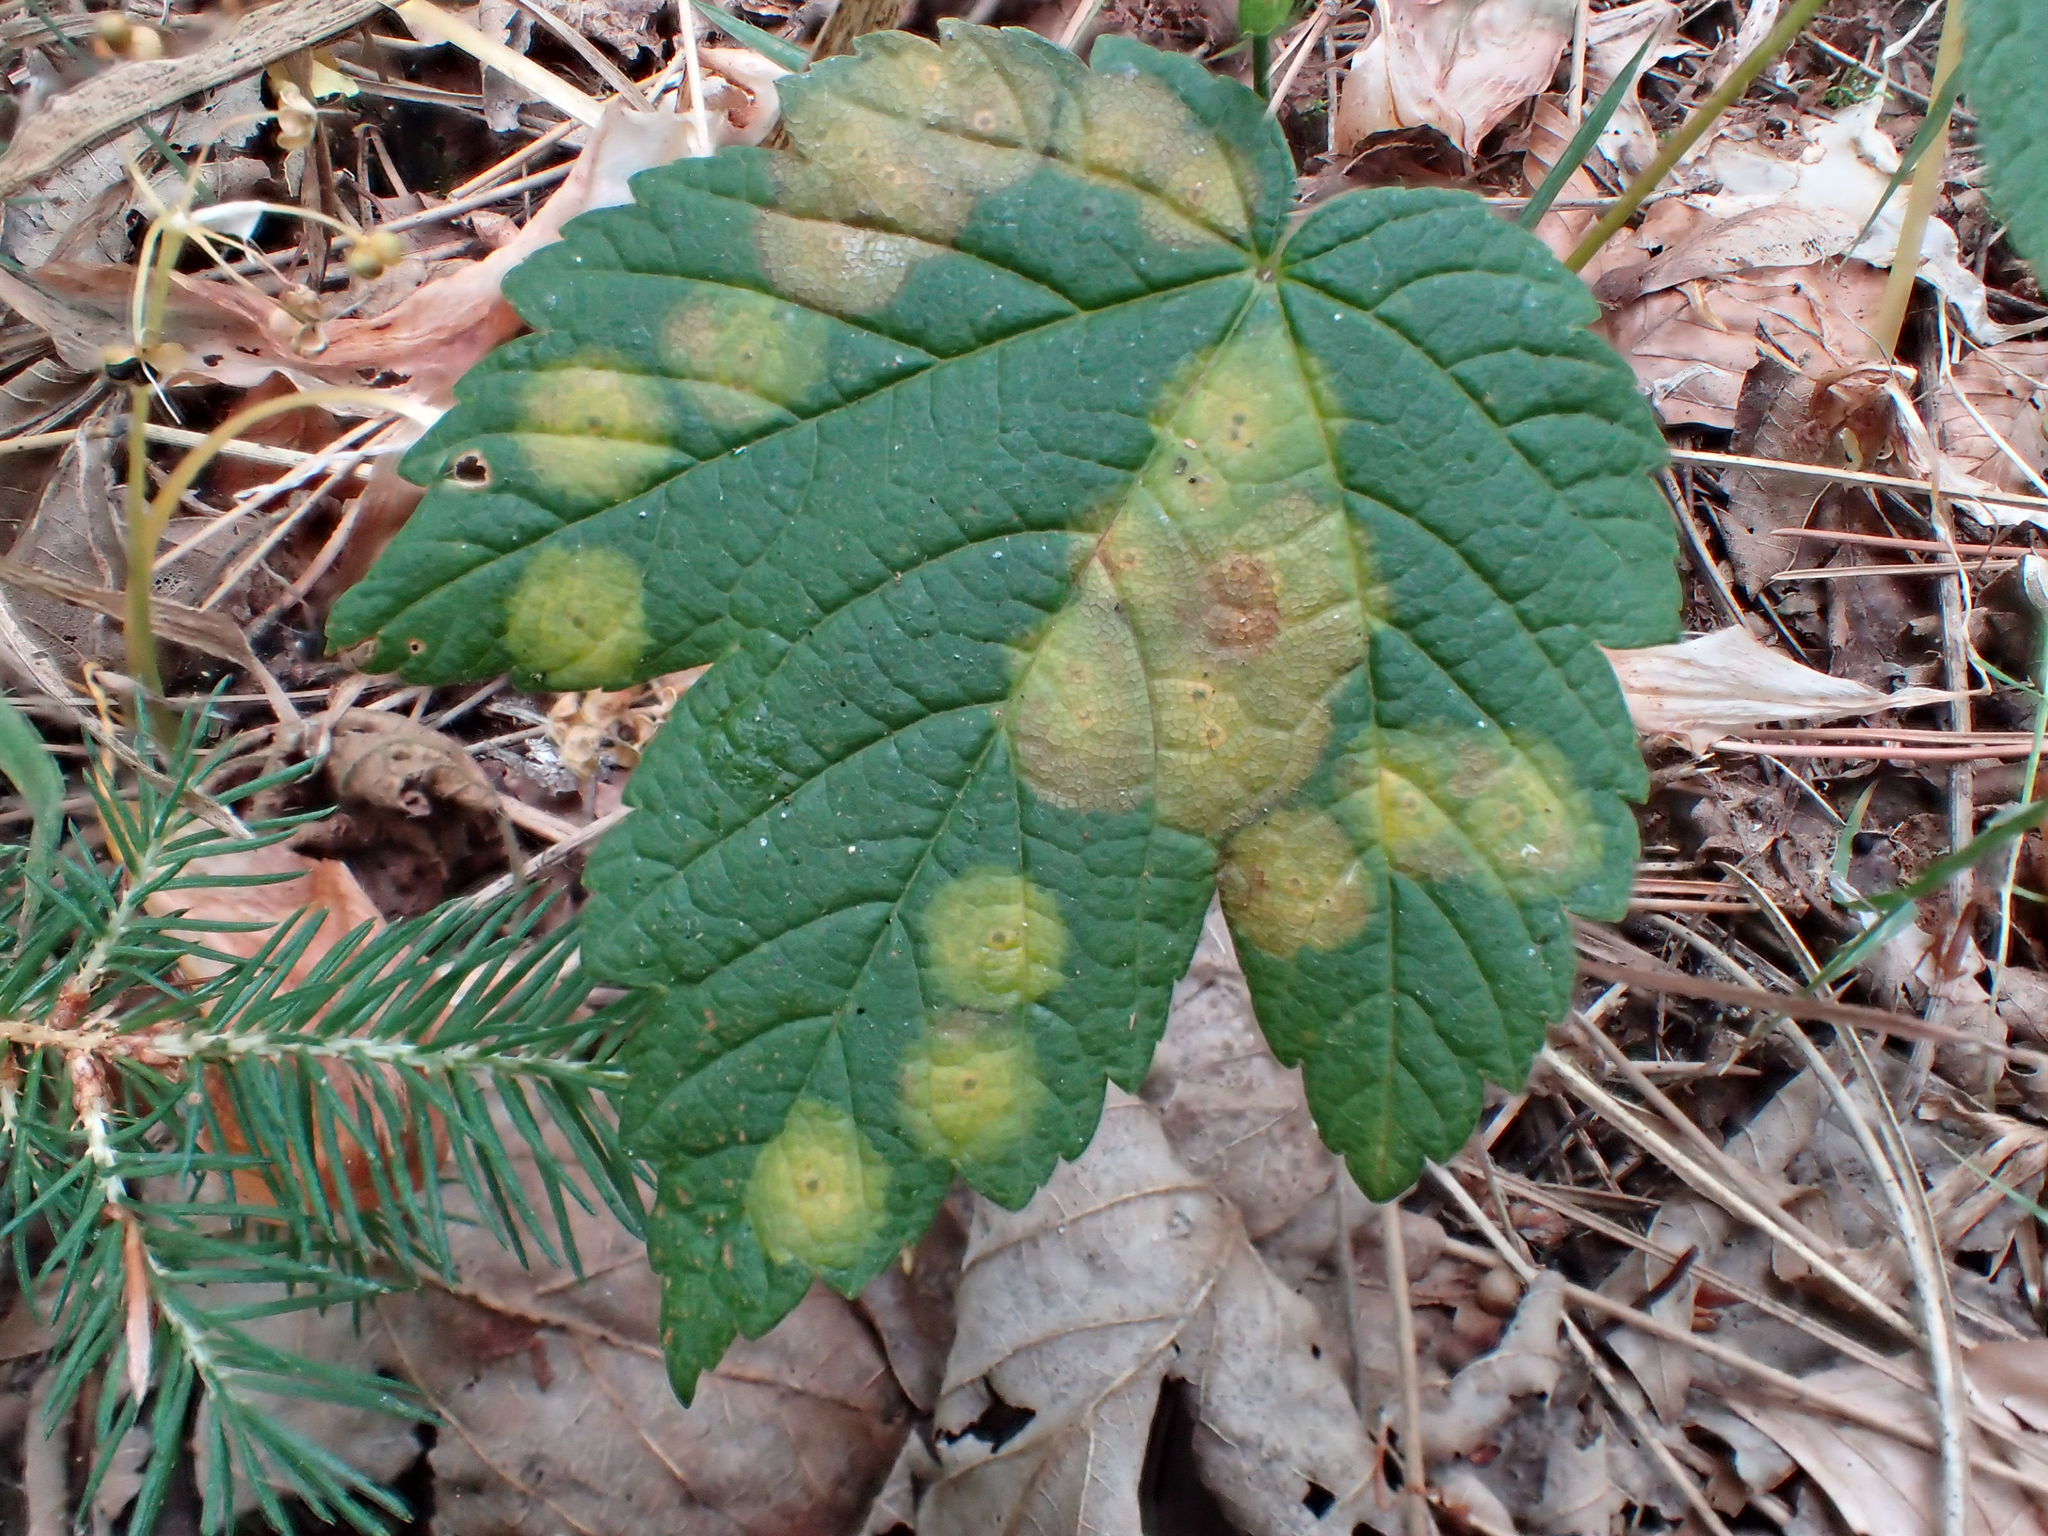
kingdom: Animalia
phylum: Arthropoda
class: Insecta
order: Diptera
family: Cecidomyiidae
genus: Drisina
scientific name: Drisina glutinosa
